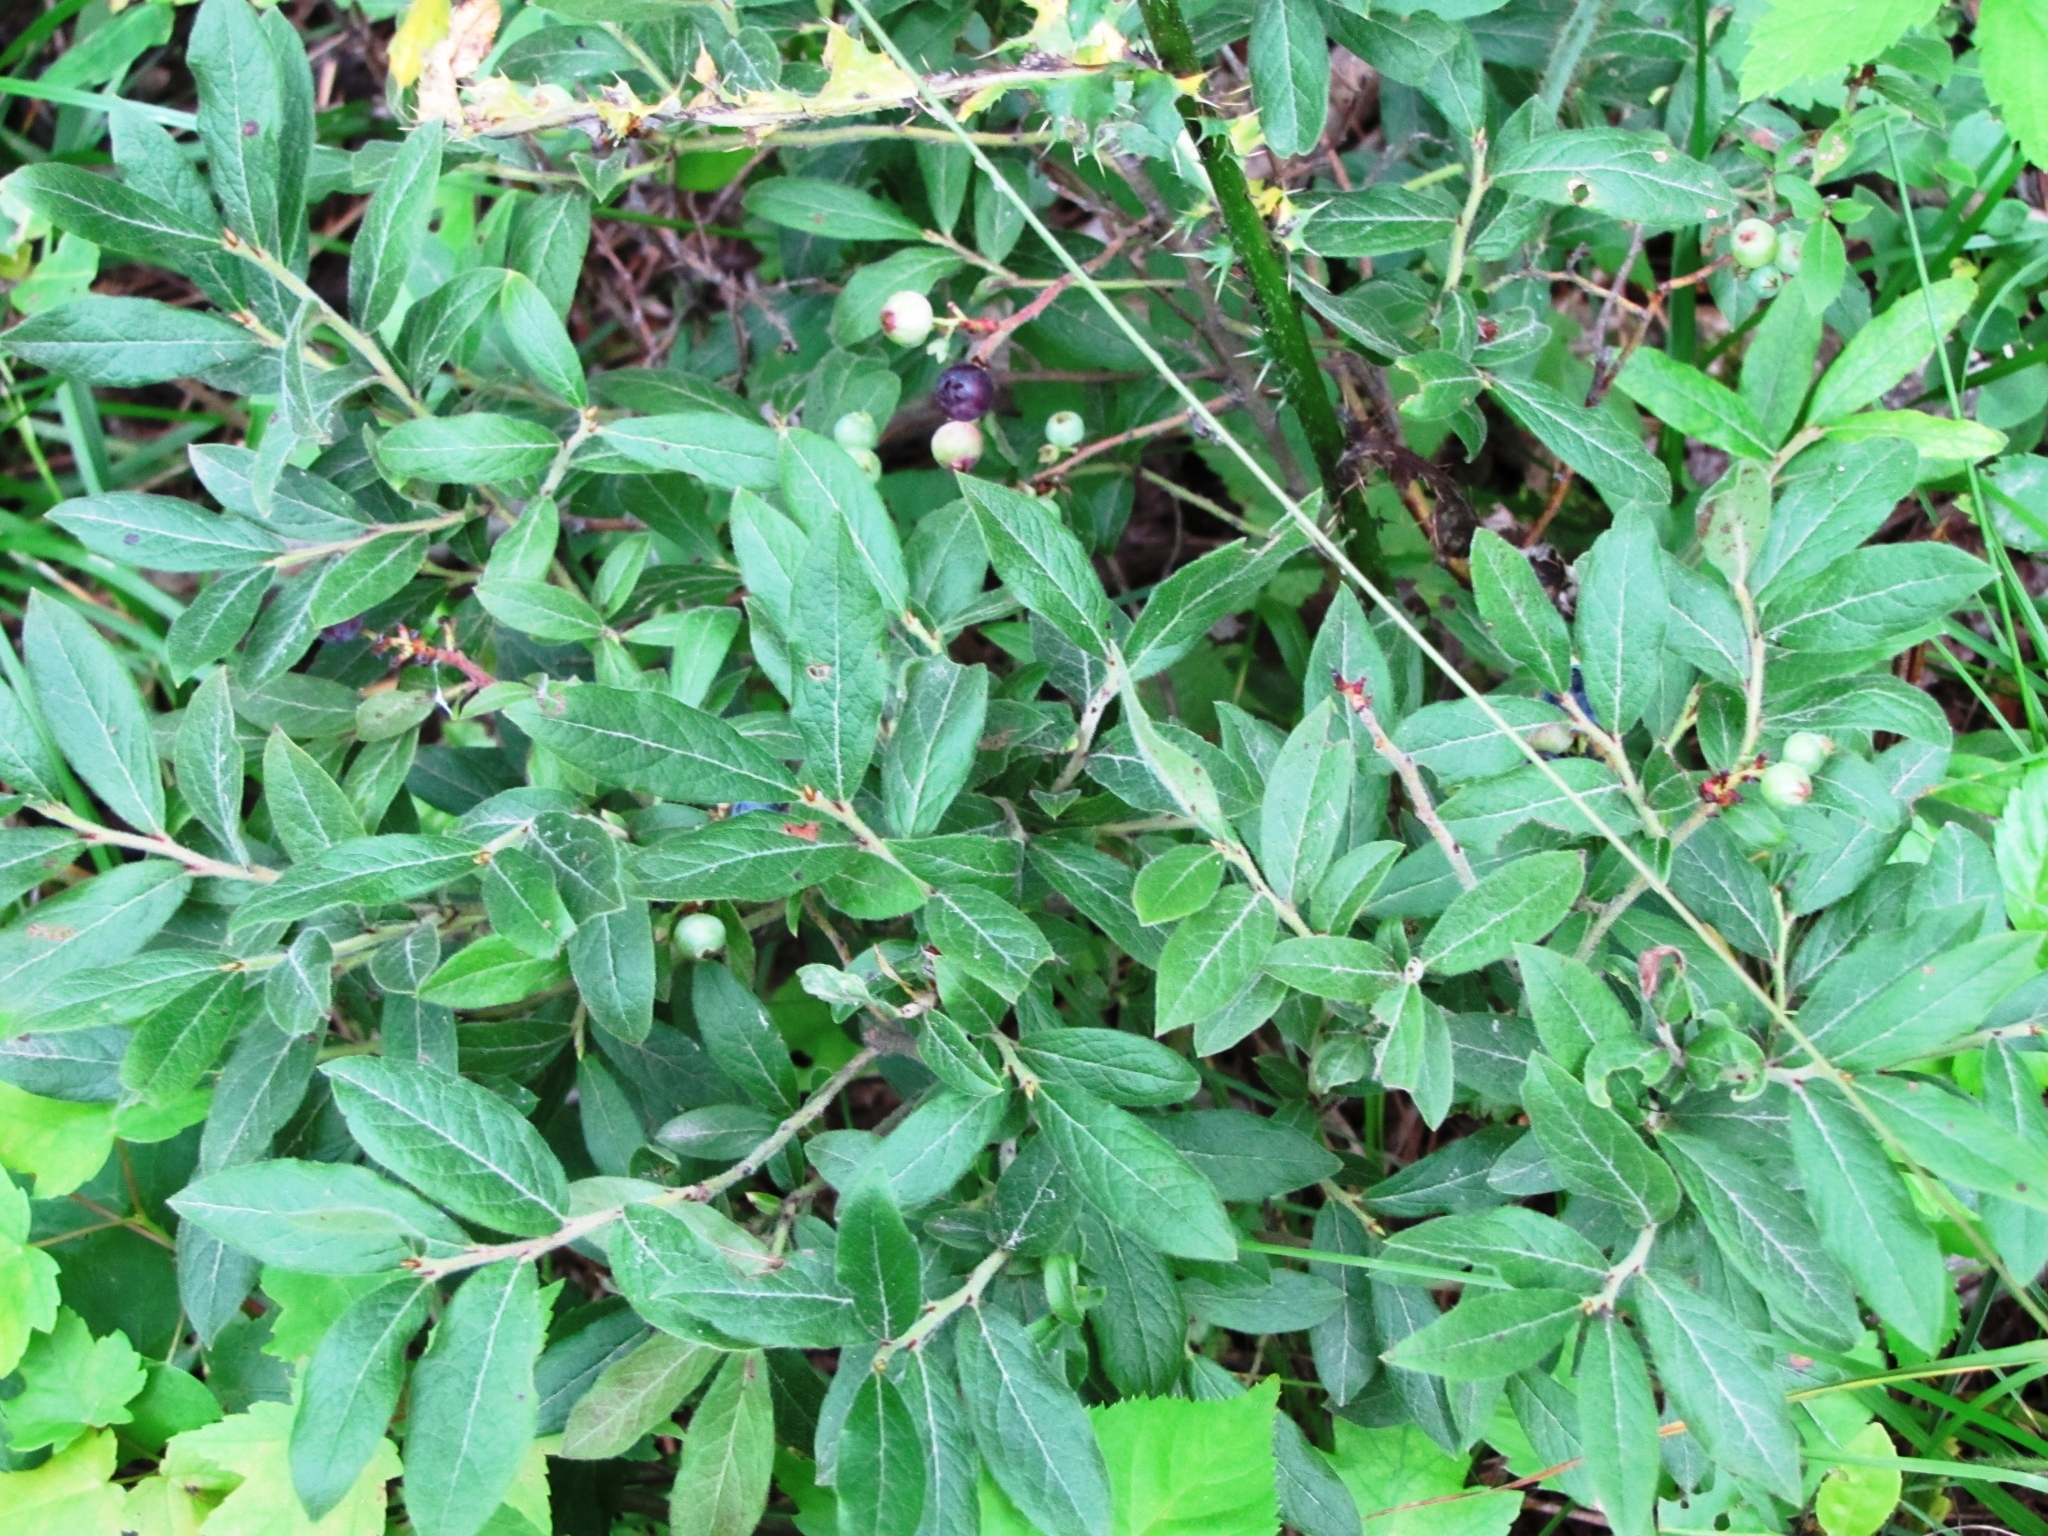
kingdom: Plantae
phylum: Tracheophyta
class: Magnoliopsida
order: Ericales
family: Ericaceae
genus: Vaccinium
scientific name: Vaccinium myrtilloides
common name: Canada blueberry
